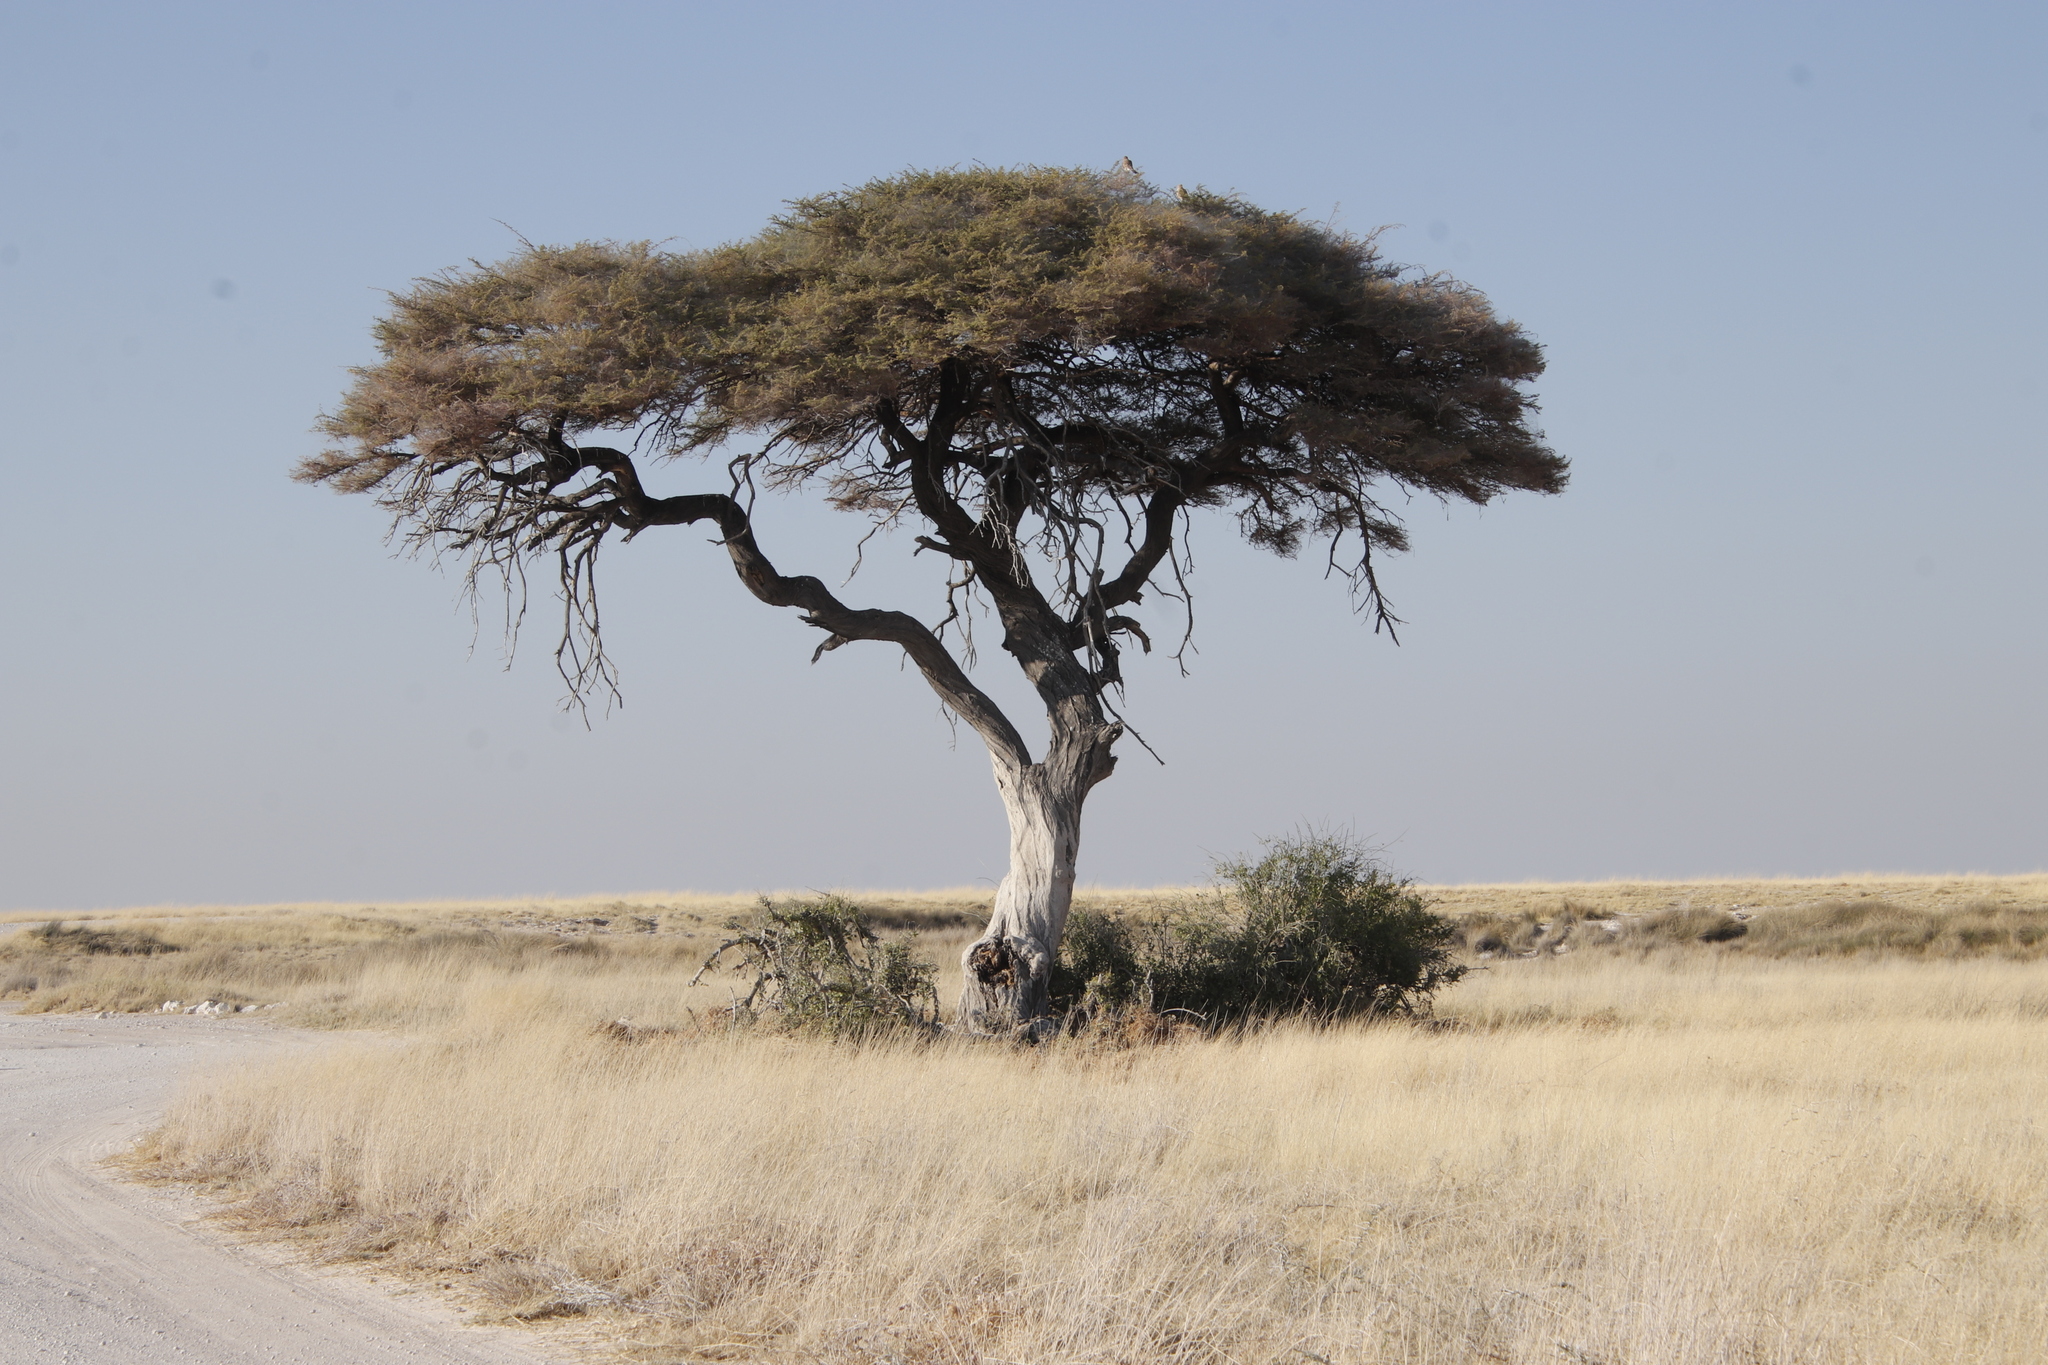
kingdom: Plantae
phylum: Tracheophyta
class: Magnoliopsida
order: Fabales
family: Fabaceae
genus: Vachellia
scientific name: Vachellia tortilis
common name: Umbrella thorn acacia
